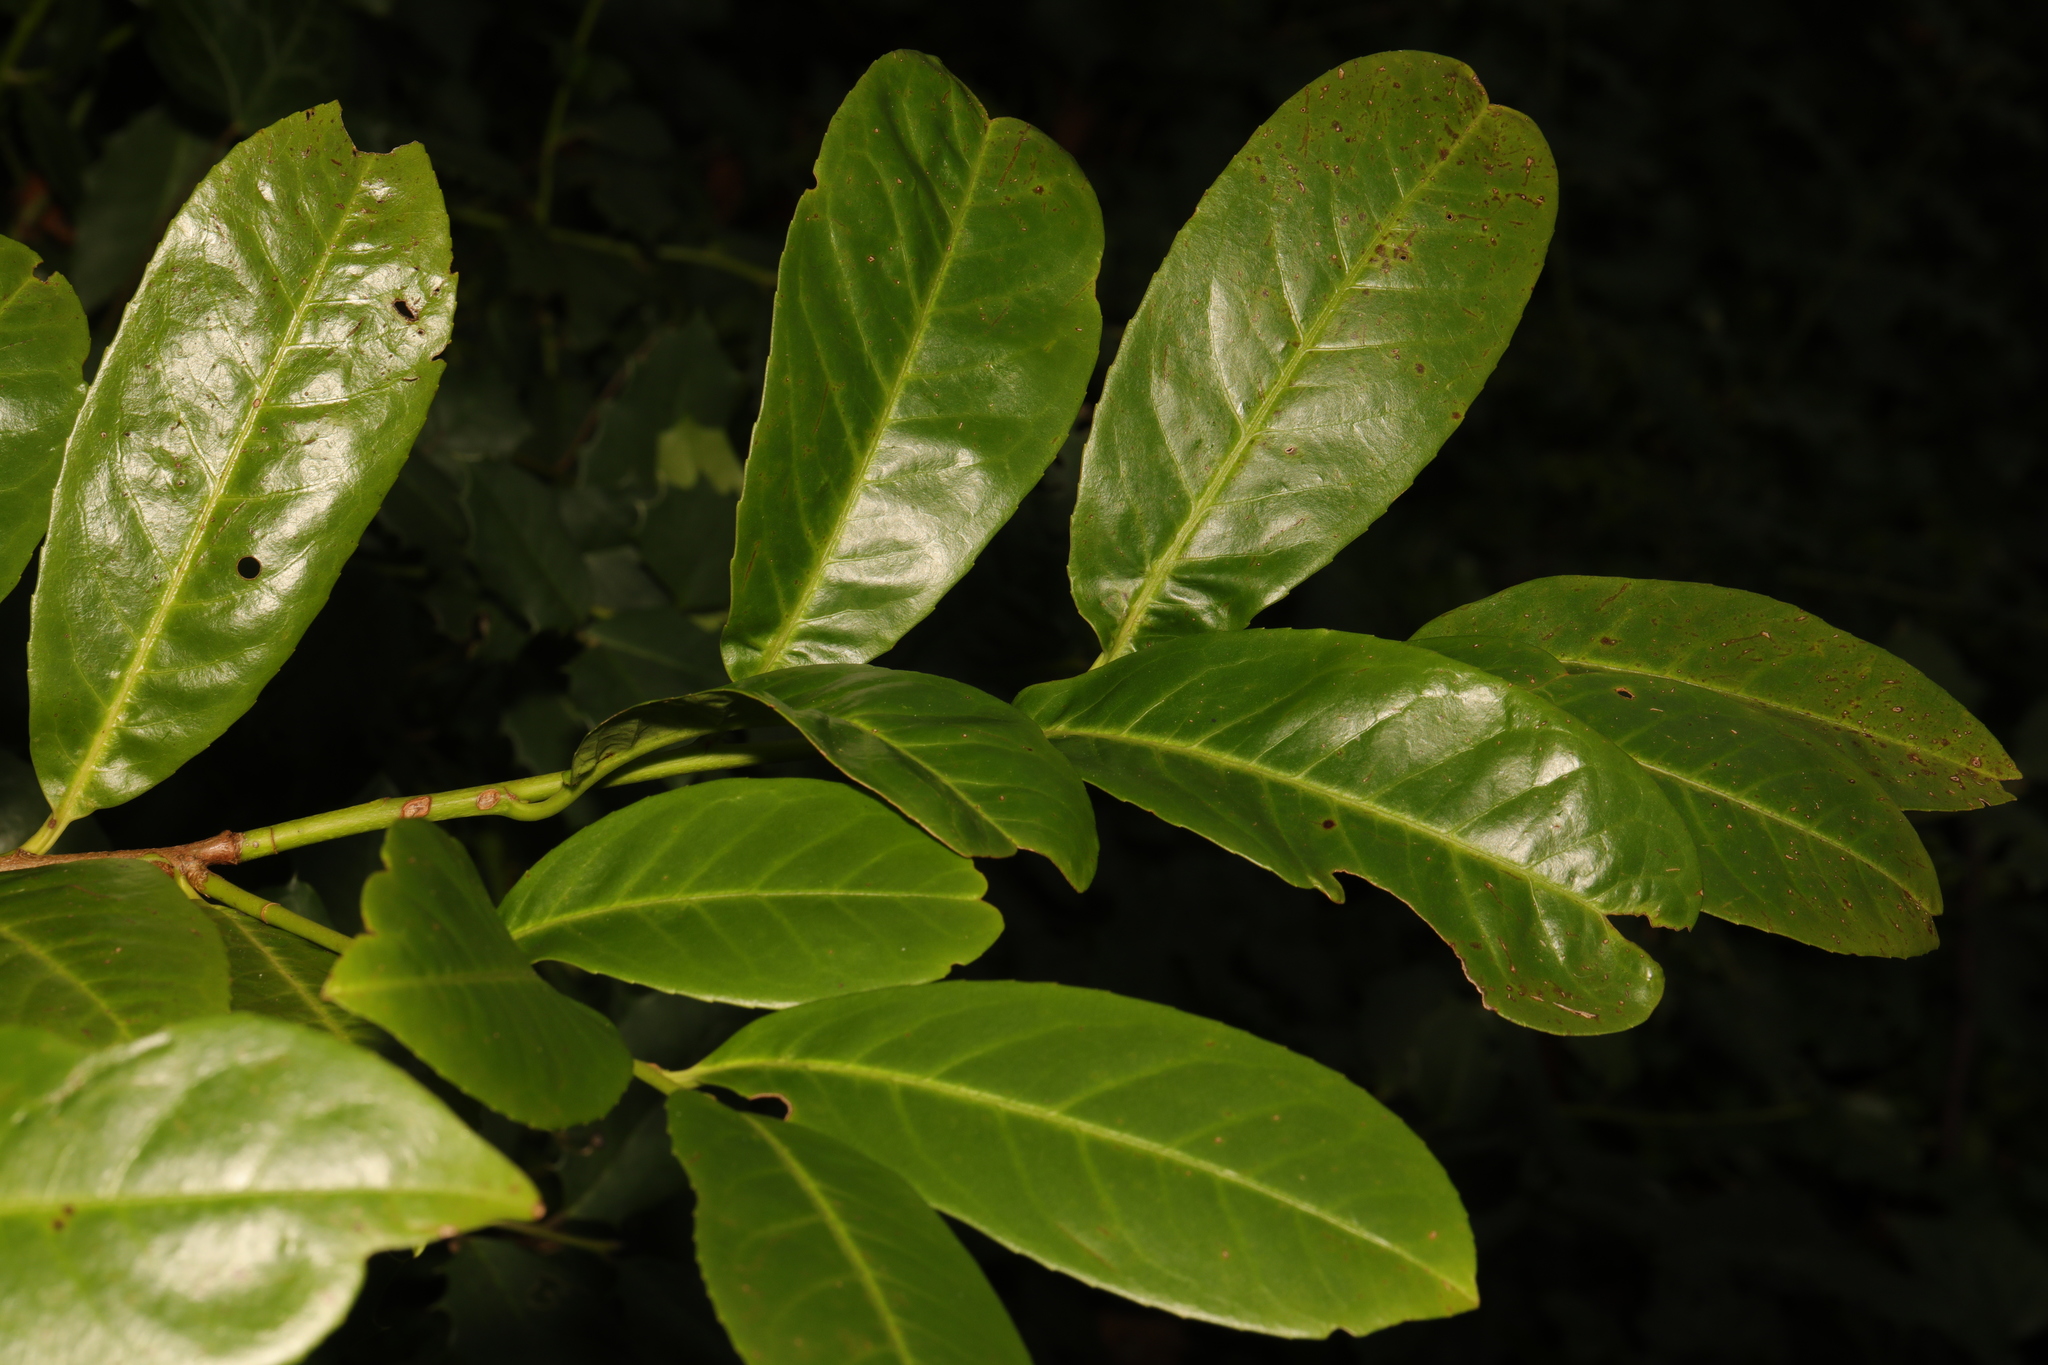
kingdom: Plantae
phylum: Tracheophyta
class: Magnoliopsida
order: Rosales
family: Rosaceae
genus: Prunus
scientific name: Prunus laurocerasus
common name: Cherry laurel
